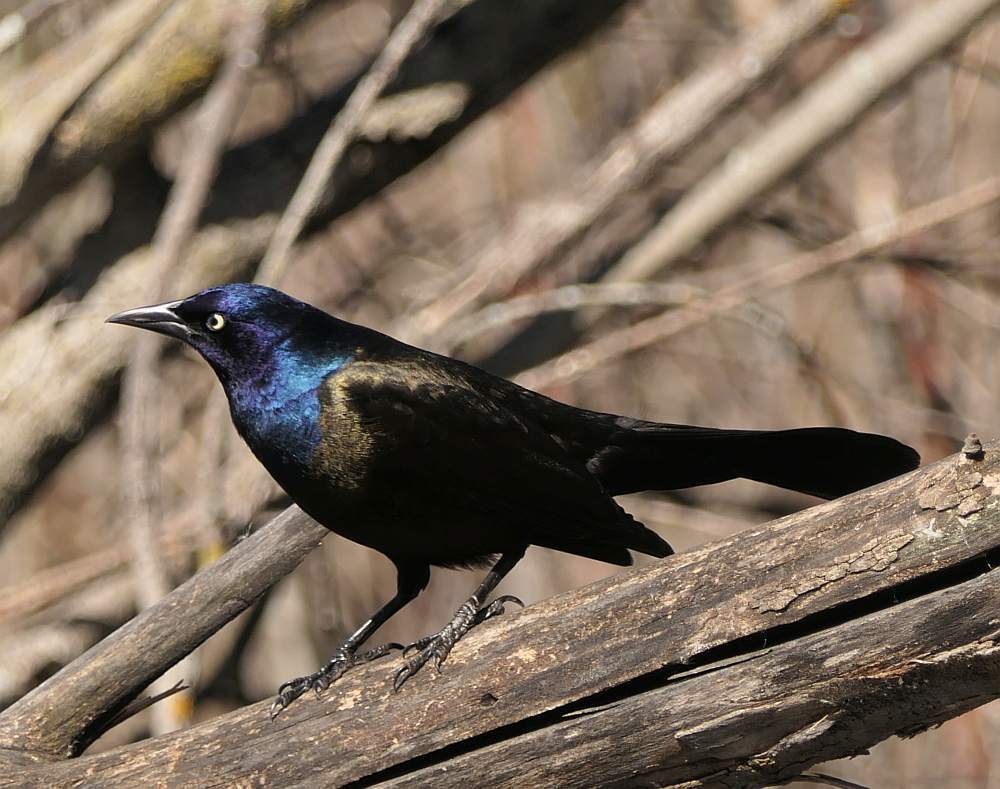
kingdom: Animalia
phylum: Chordata
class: Aves
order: Passeriformes
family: Icteridae
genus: Quiscalus
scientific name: Quiscalus quiscula
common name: Common grackle
